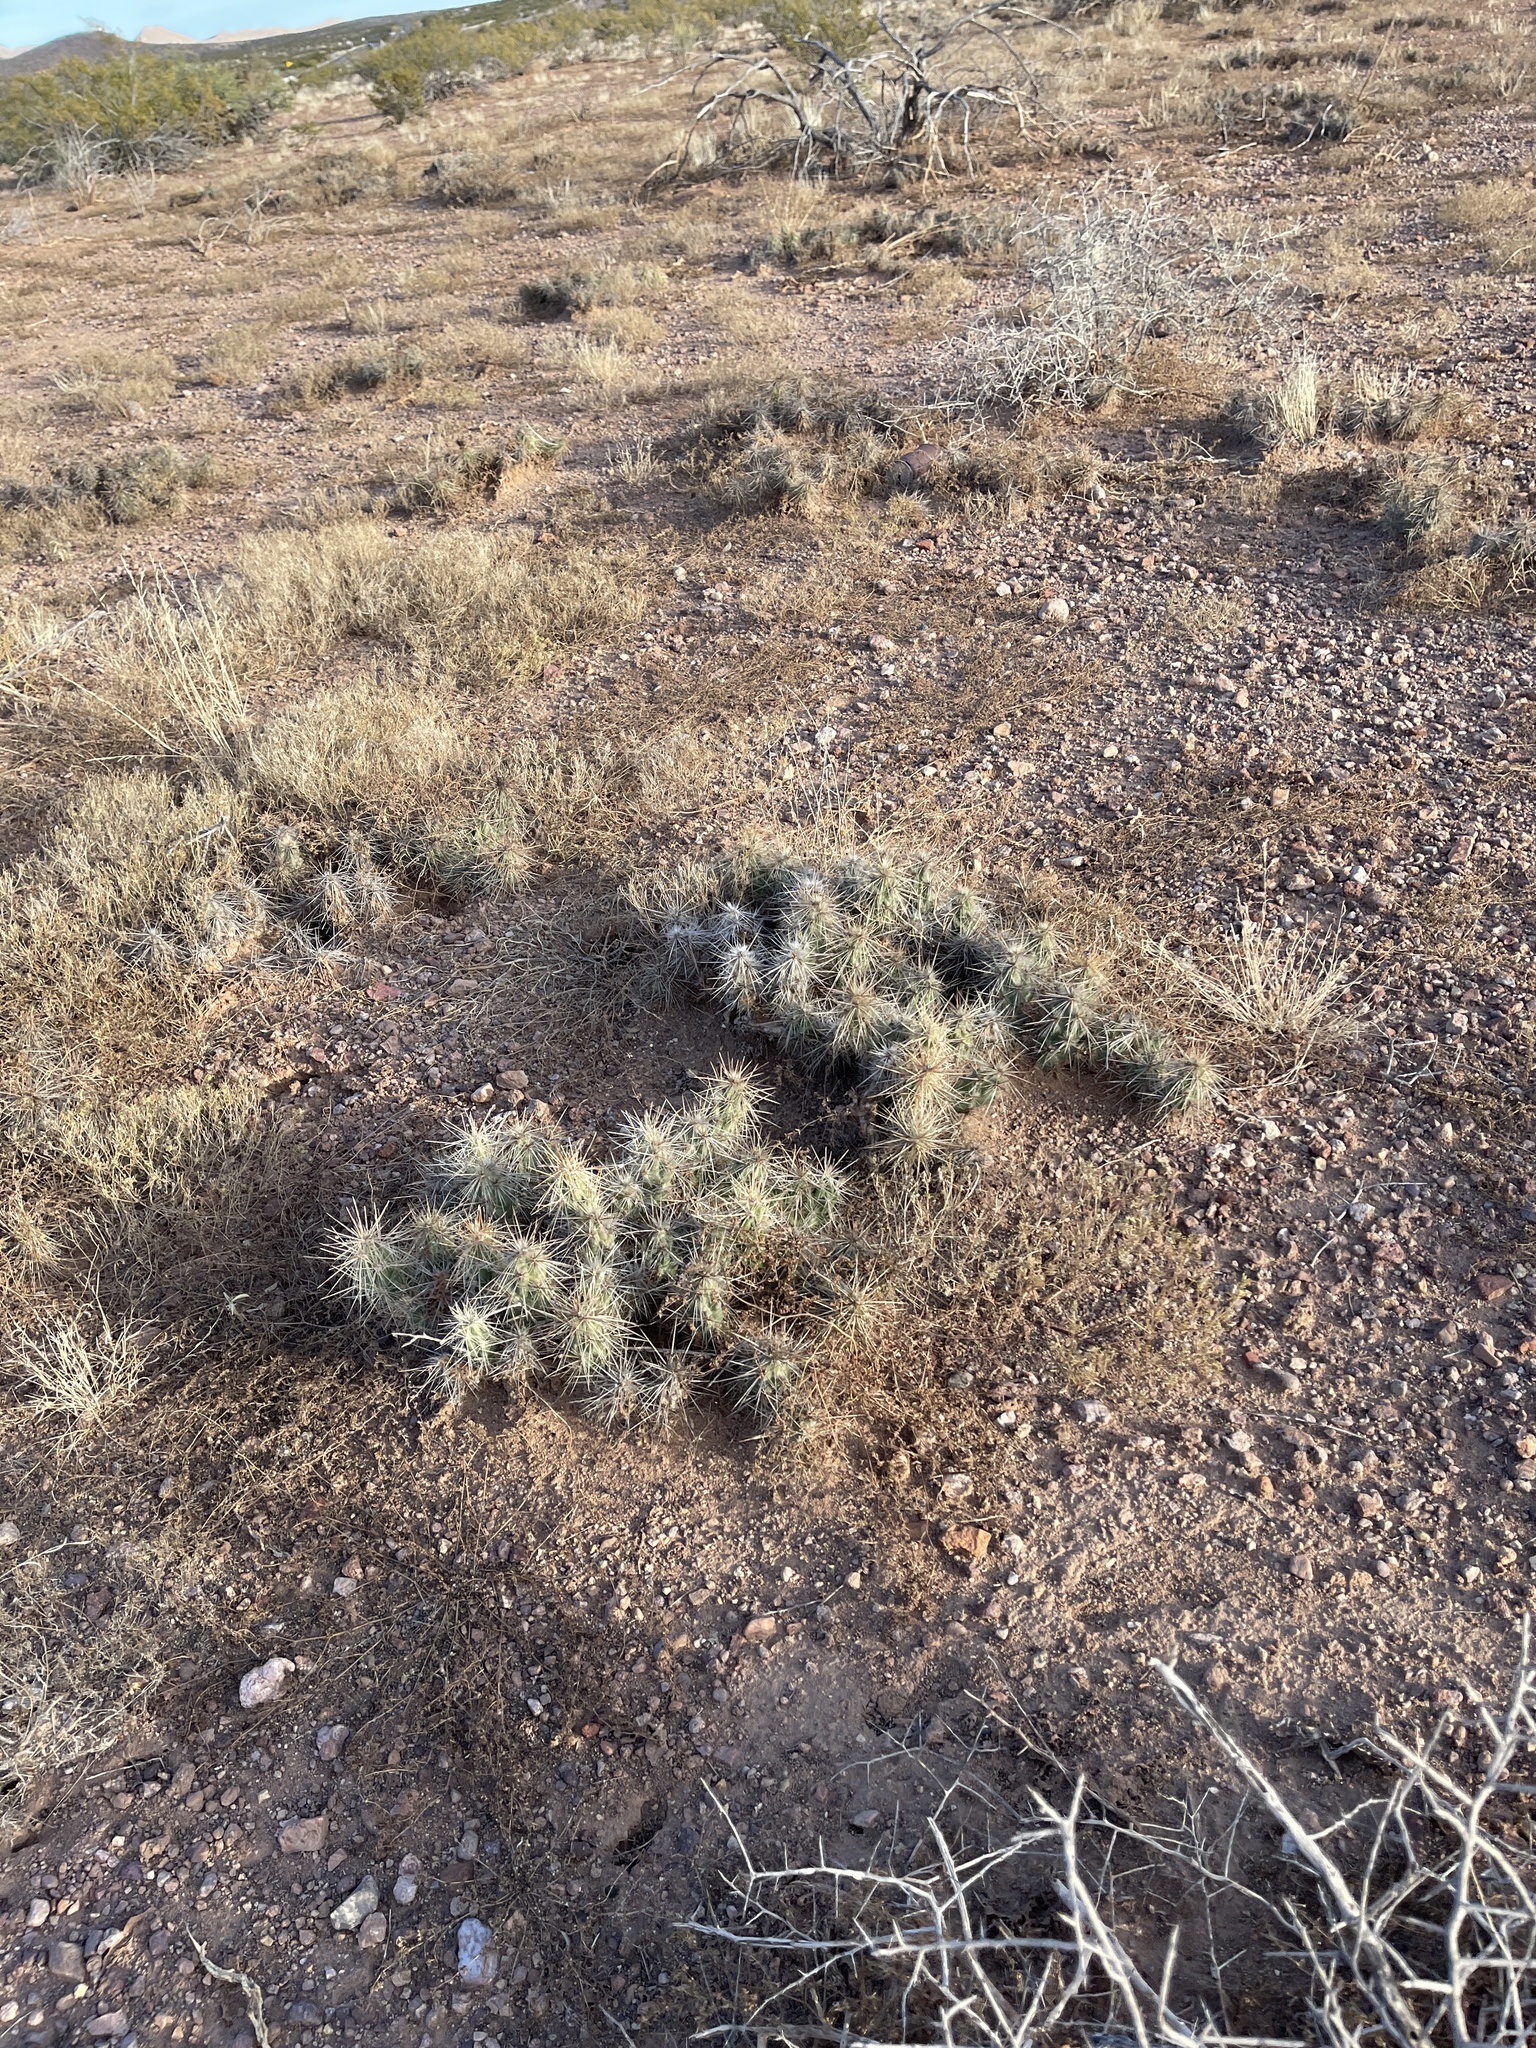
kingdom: Plantae
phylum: Tracheophyta
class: Magnoliopsida
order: Caryophyllales
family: Cactaceae
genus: Grusonia
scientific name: Grusonia emoryi
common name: Stanly's club cholla
